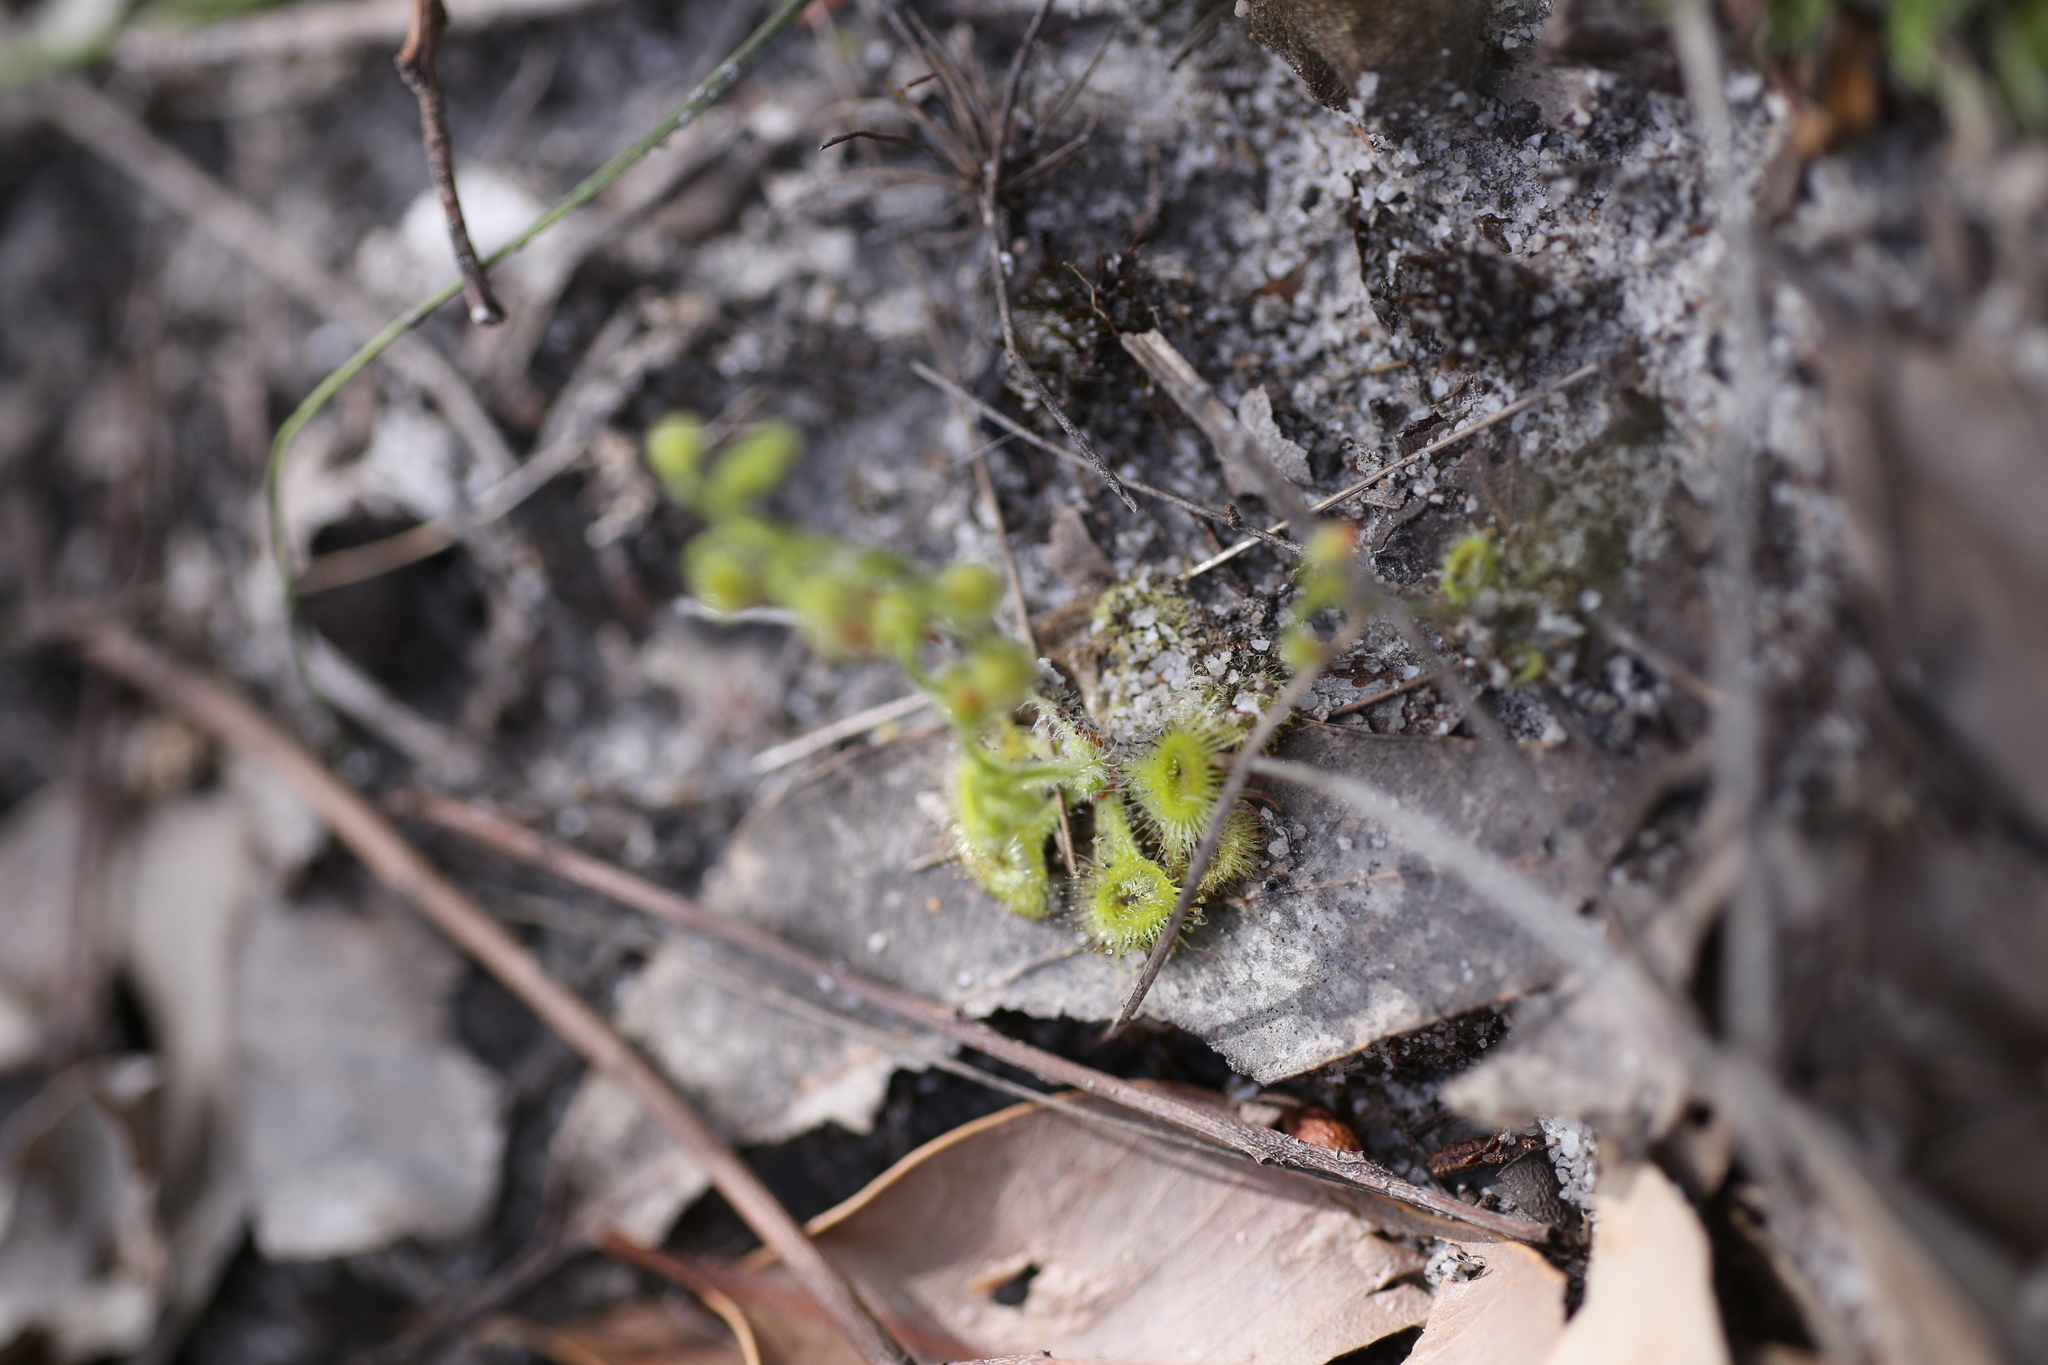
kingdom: Plantae
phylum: Tracheophyta
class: Magnoliopsida
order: Caryophyllales
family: Droseraceae
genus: Drosera
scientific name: Drosera glanduligera
